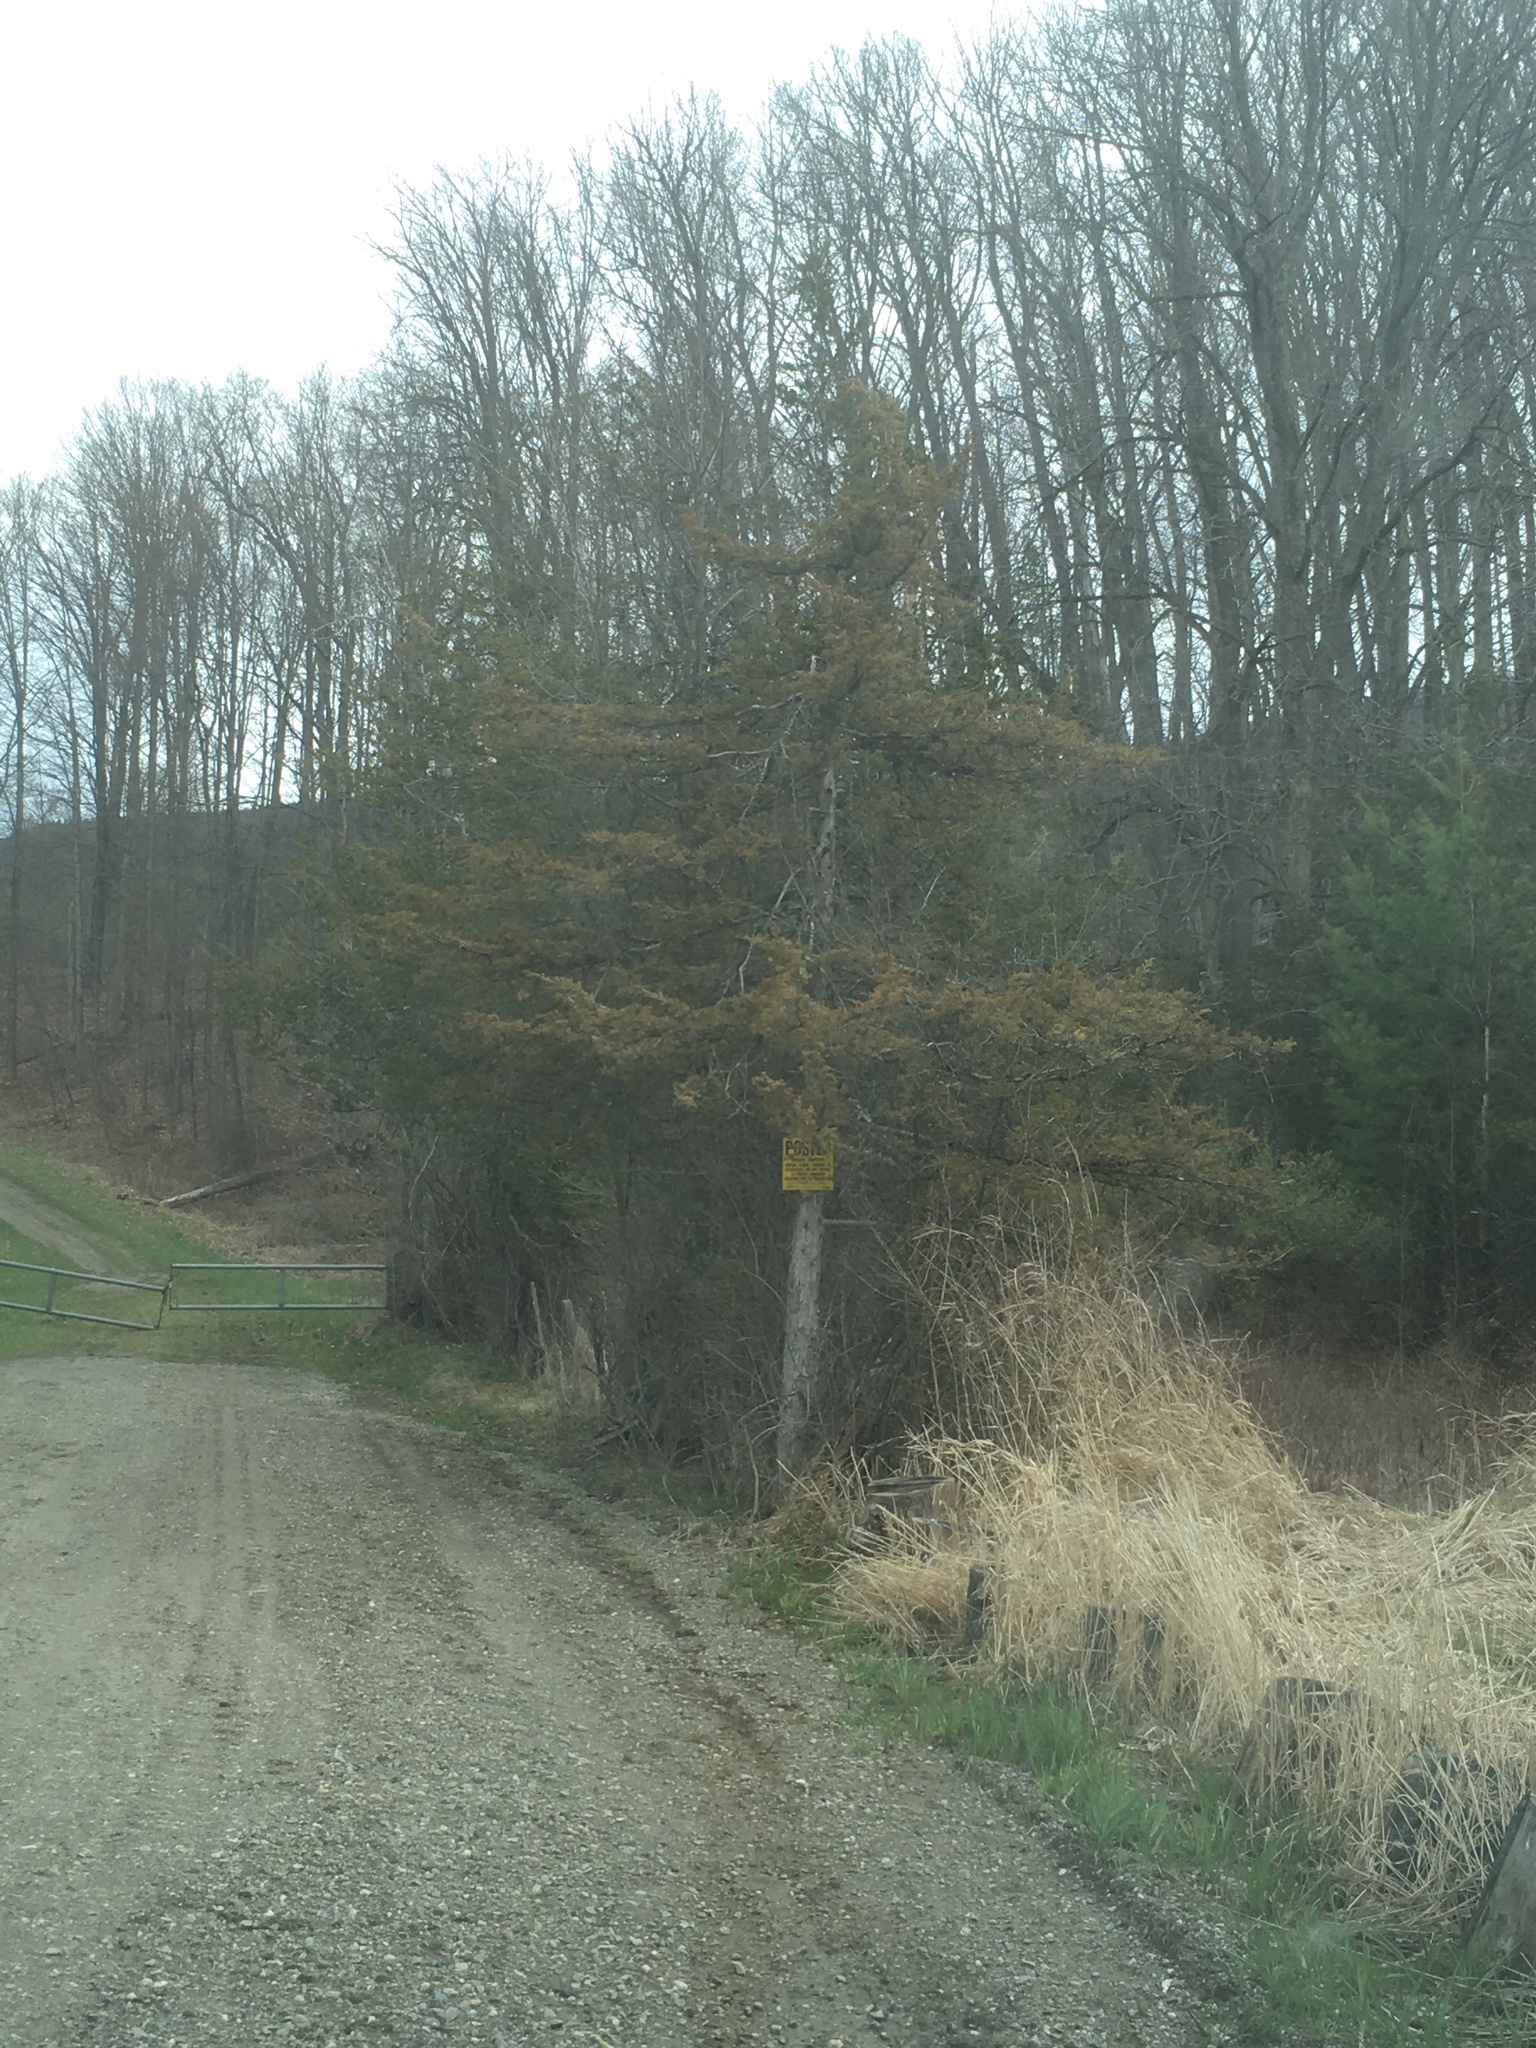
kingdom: Plantae
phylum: Tracheophyta
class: Pinopsida
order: Pinales
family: Cupressaceae
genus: Juniperus
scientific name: Juniperus virginiana
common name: Red juniper
